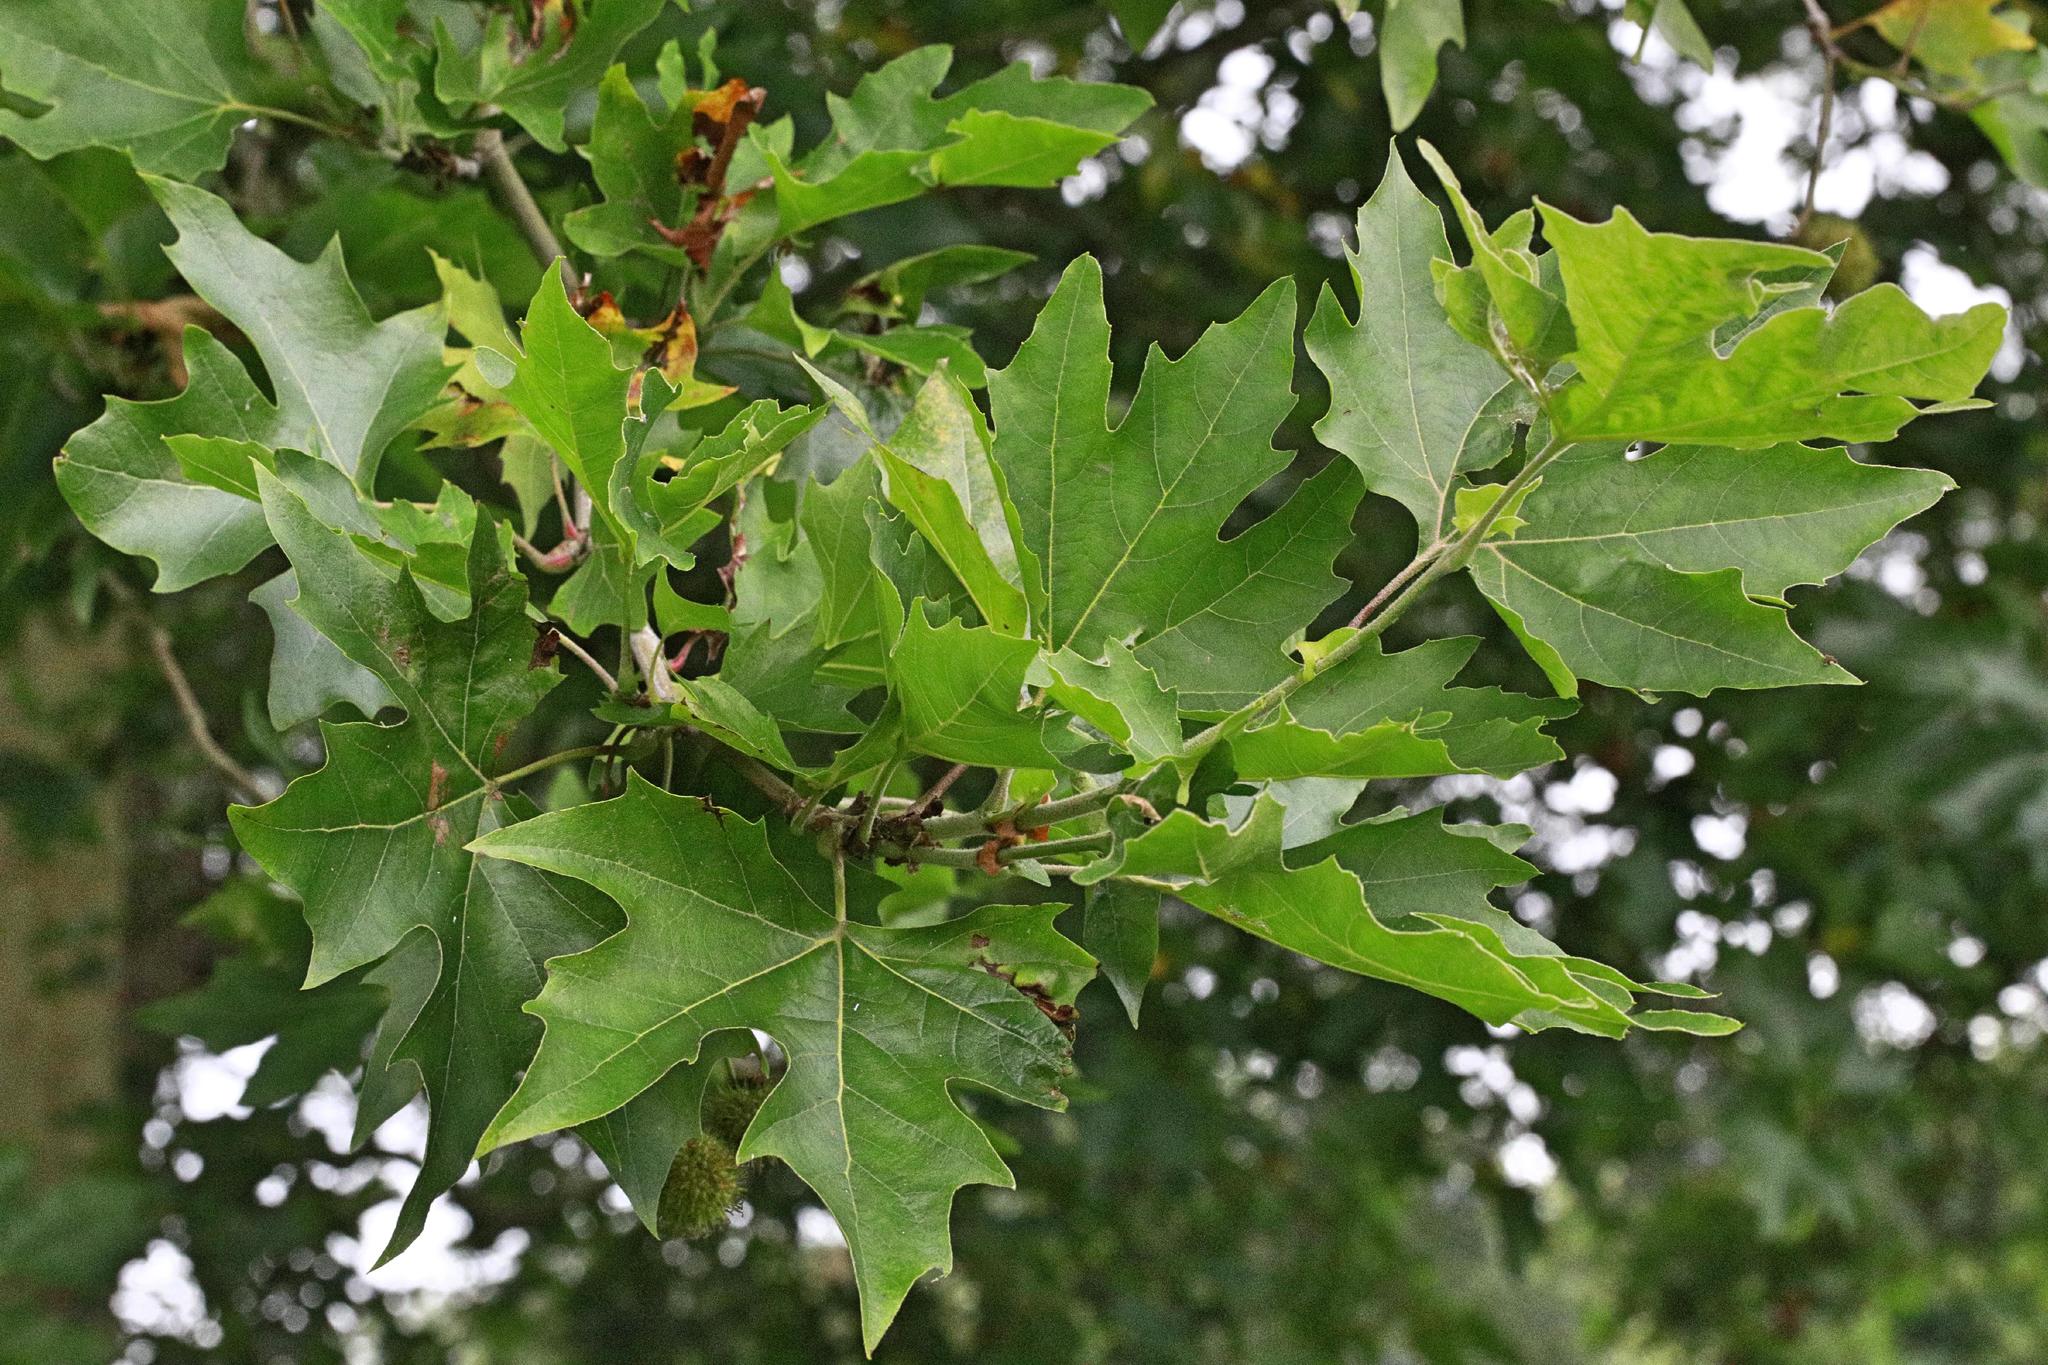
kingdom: Plantae
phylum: Tracheophyta
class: Magnoliopsida
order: Proteales
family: Platanaceae
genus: Platanus
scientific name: Platanus hispanica
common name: London plane
